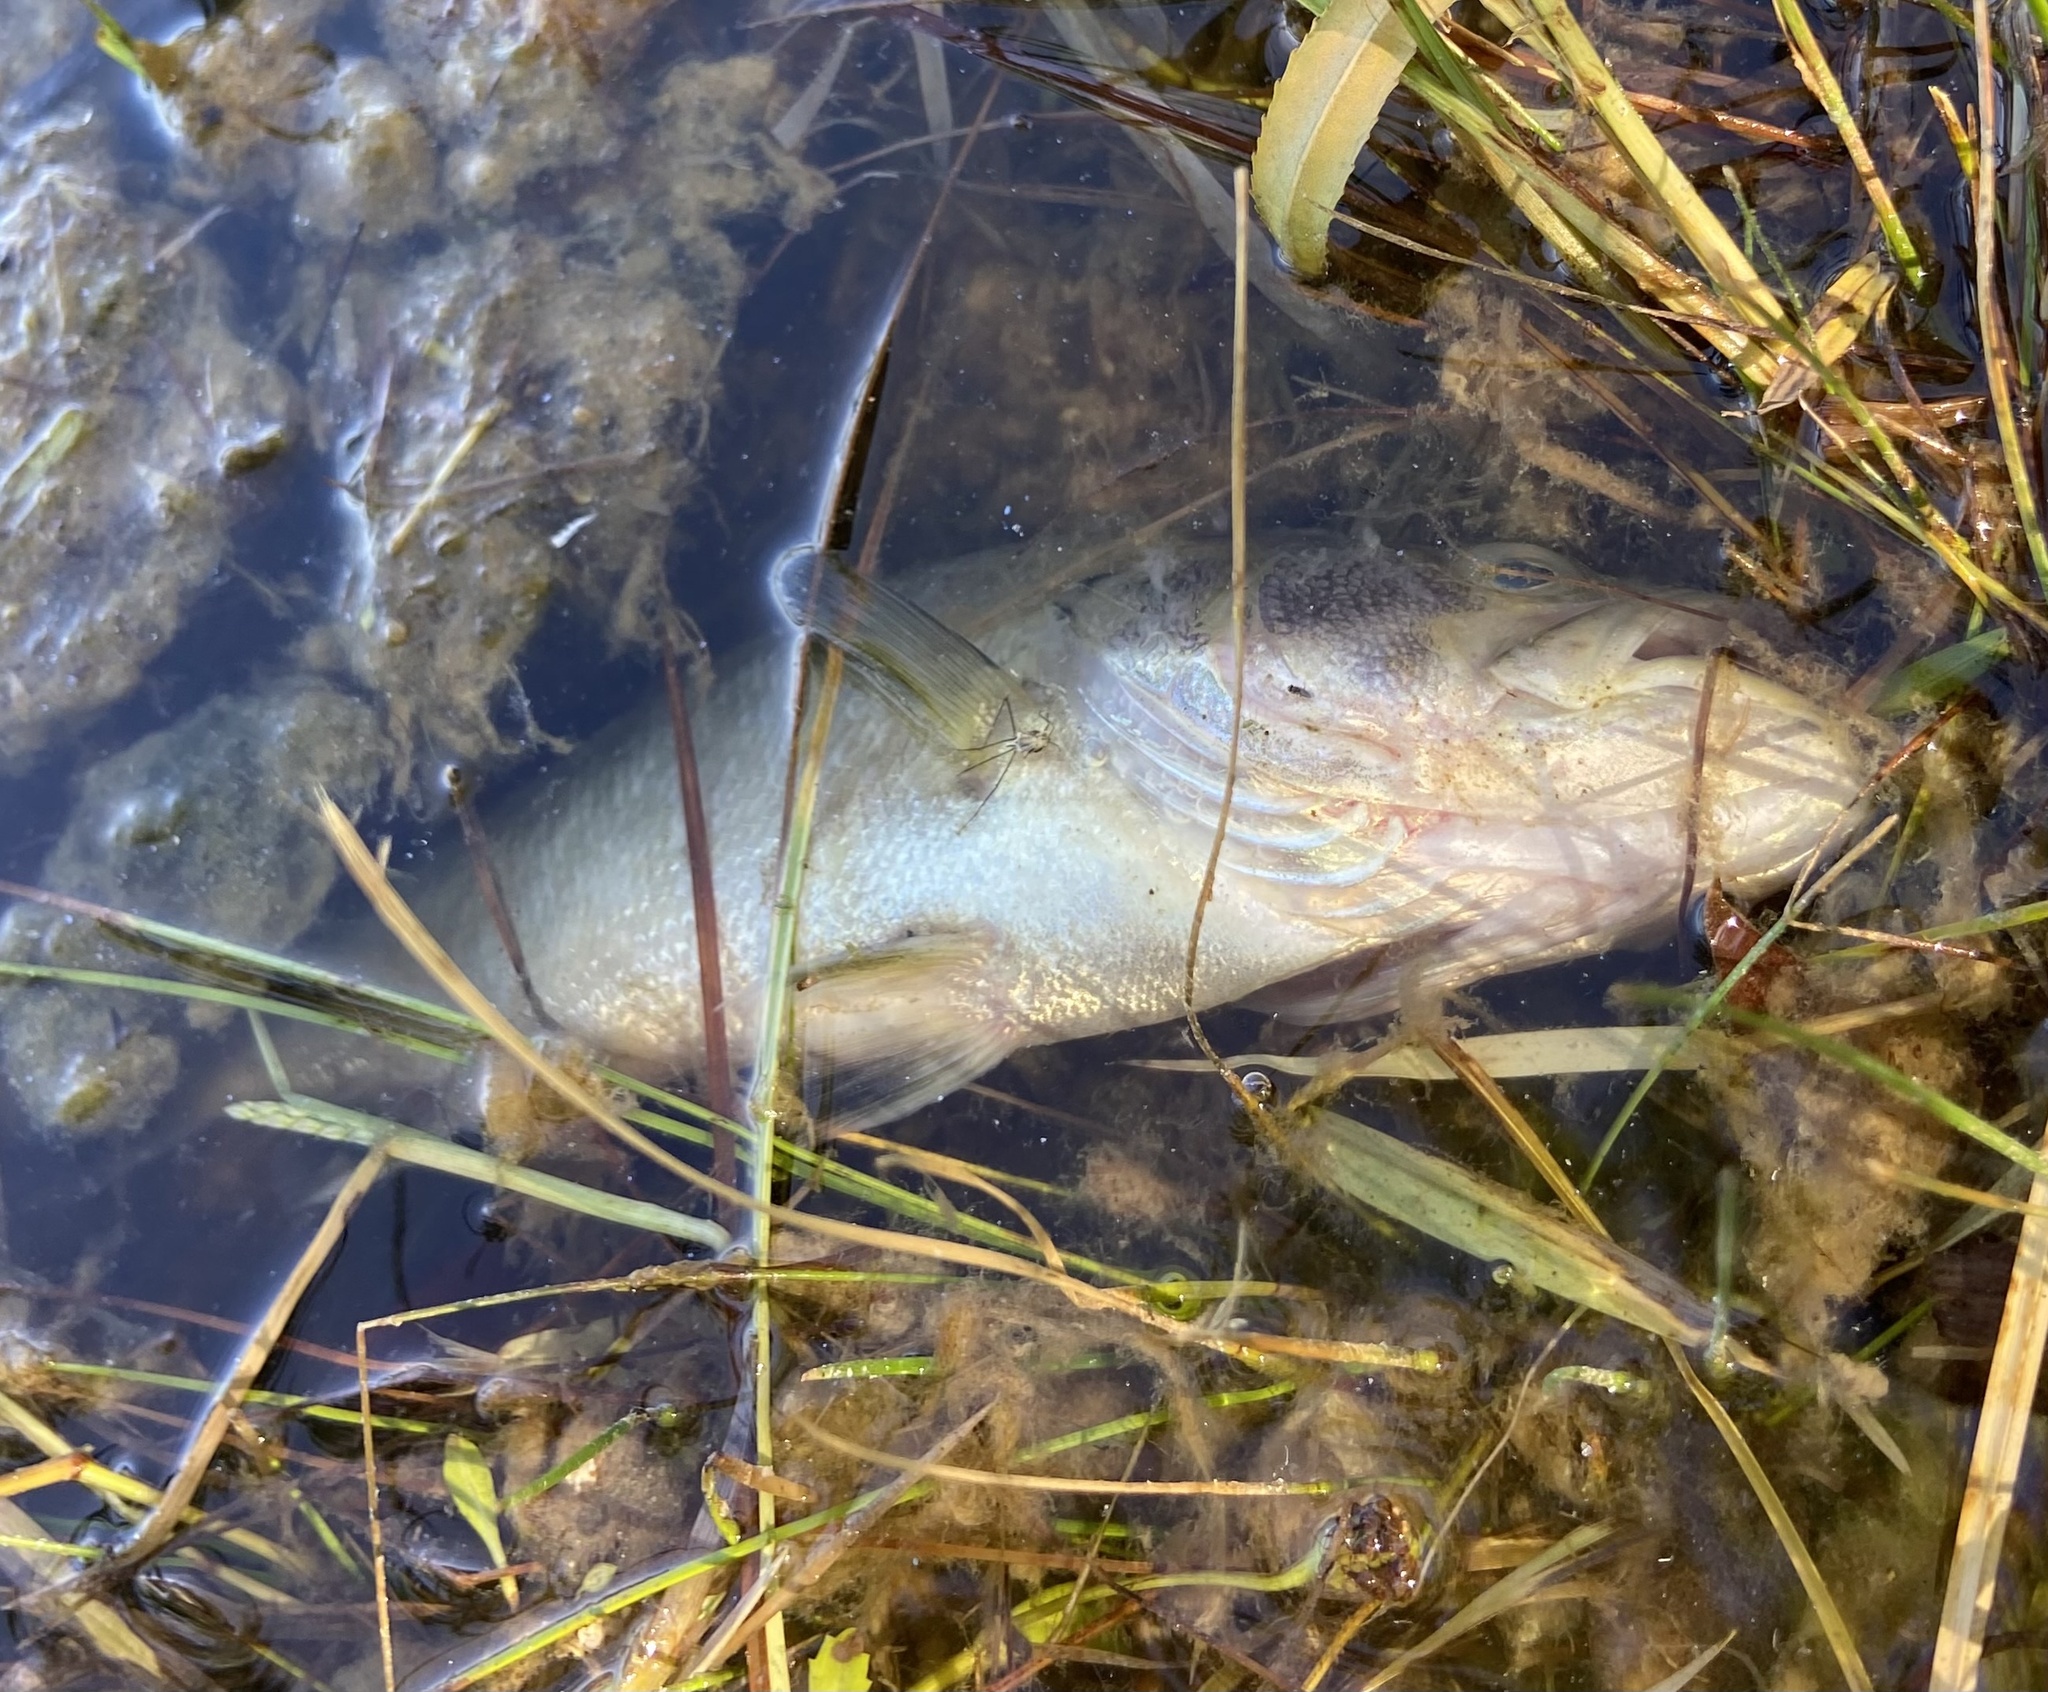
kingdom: Animalia
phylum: Chordata
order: Perciformes
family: Centrarchidae
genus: Micropterus
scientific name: Micropterus
